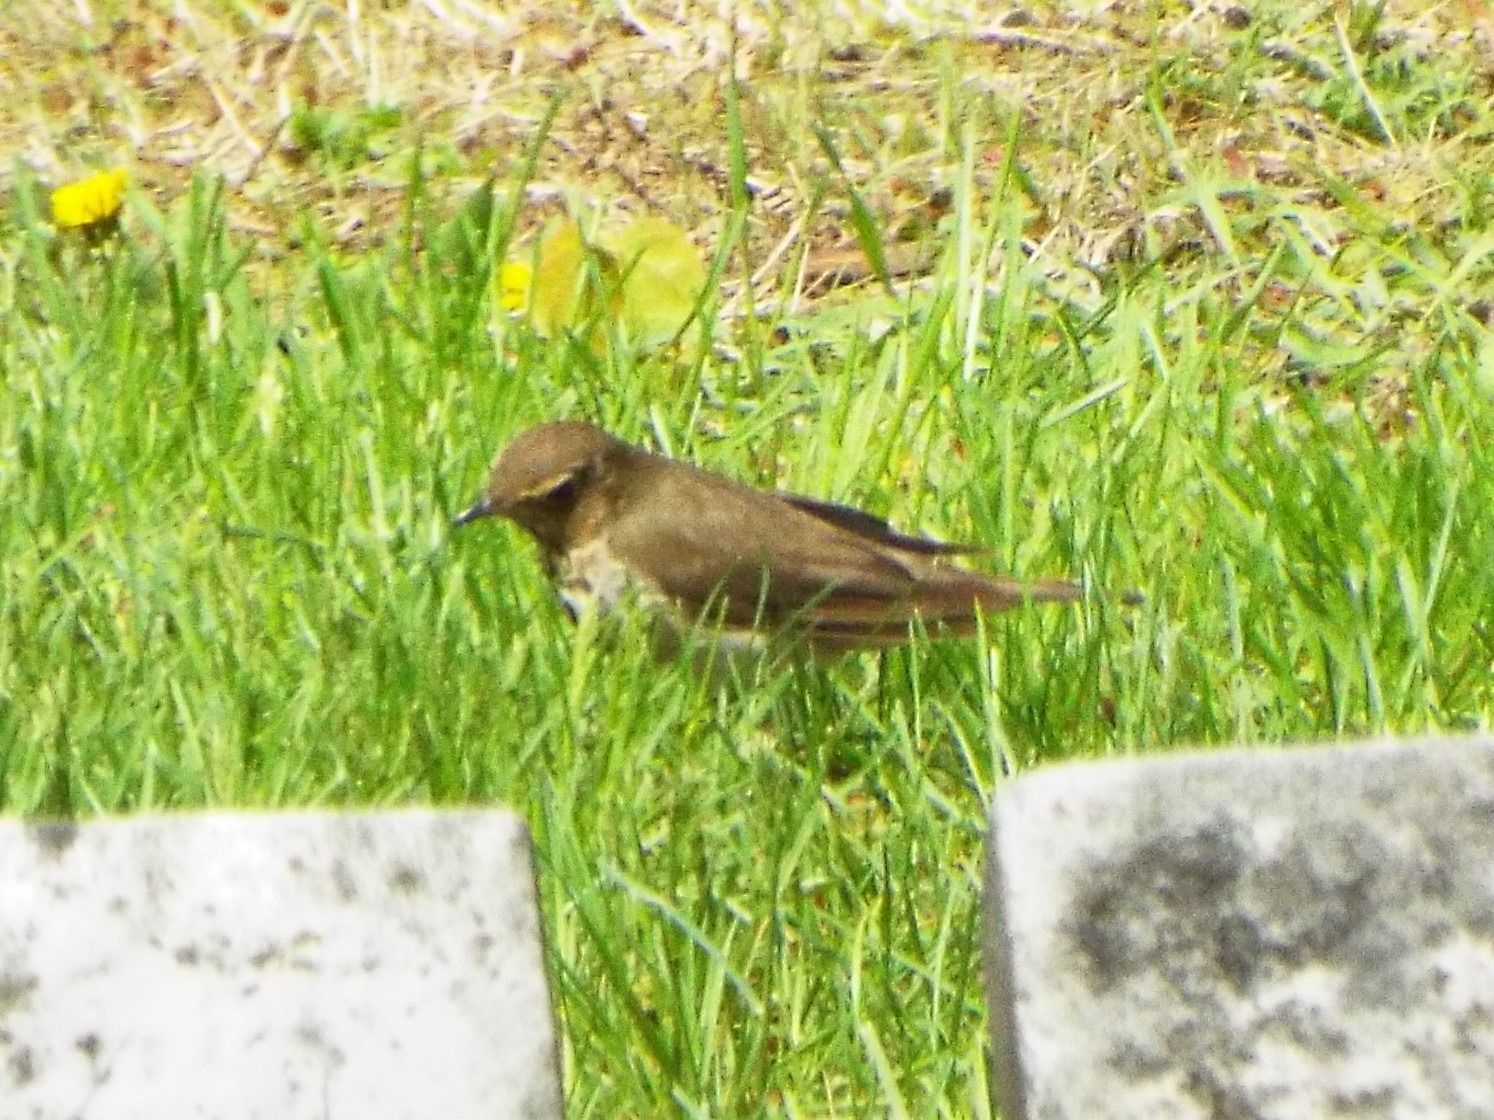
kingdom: Animalia
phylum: Chordata
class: Aves
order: Passeriformes
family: Turdidae
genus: Catharus
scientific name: Catharus ustulatus
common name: Swainson's thrush
